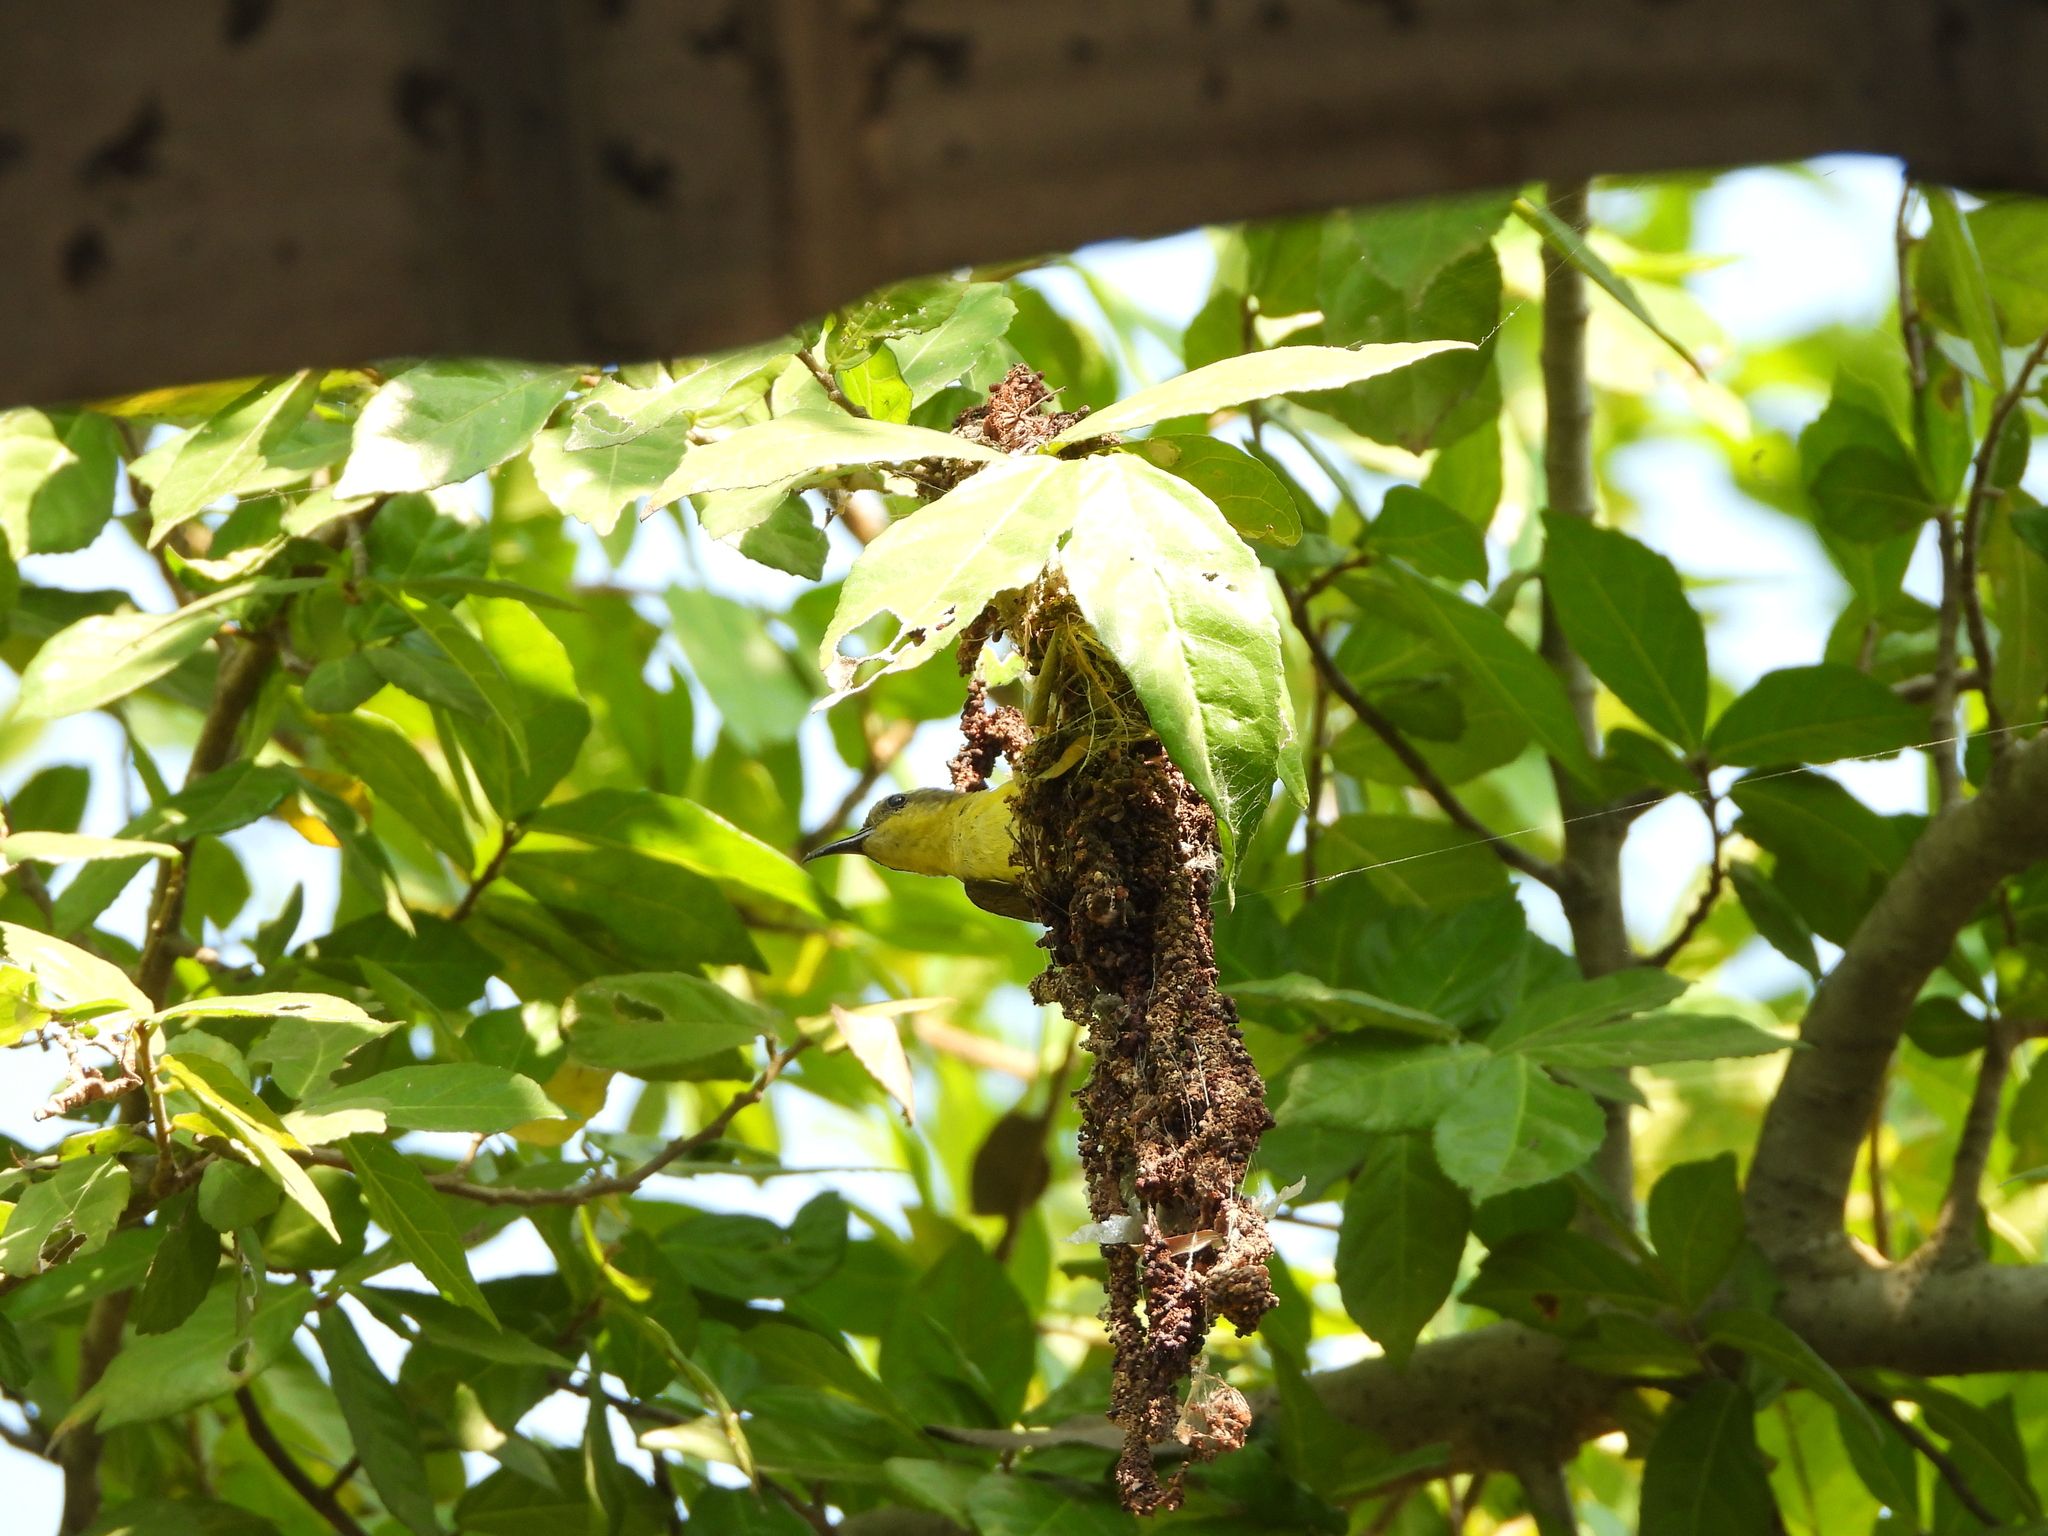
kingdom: Animalia
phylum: Chordata
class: Aves
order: Passeriformes
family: Nectariniidae
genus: Cinnyris
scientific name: Cinnyris
